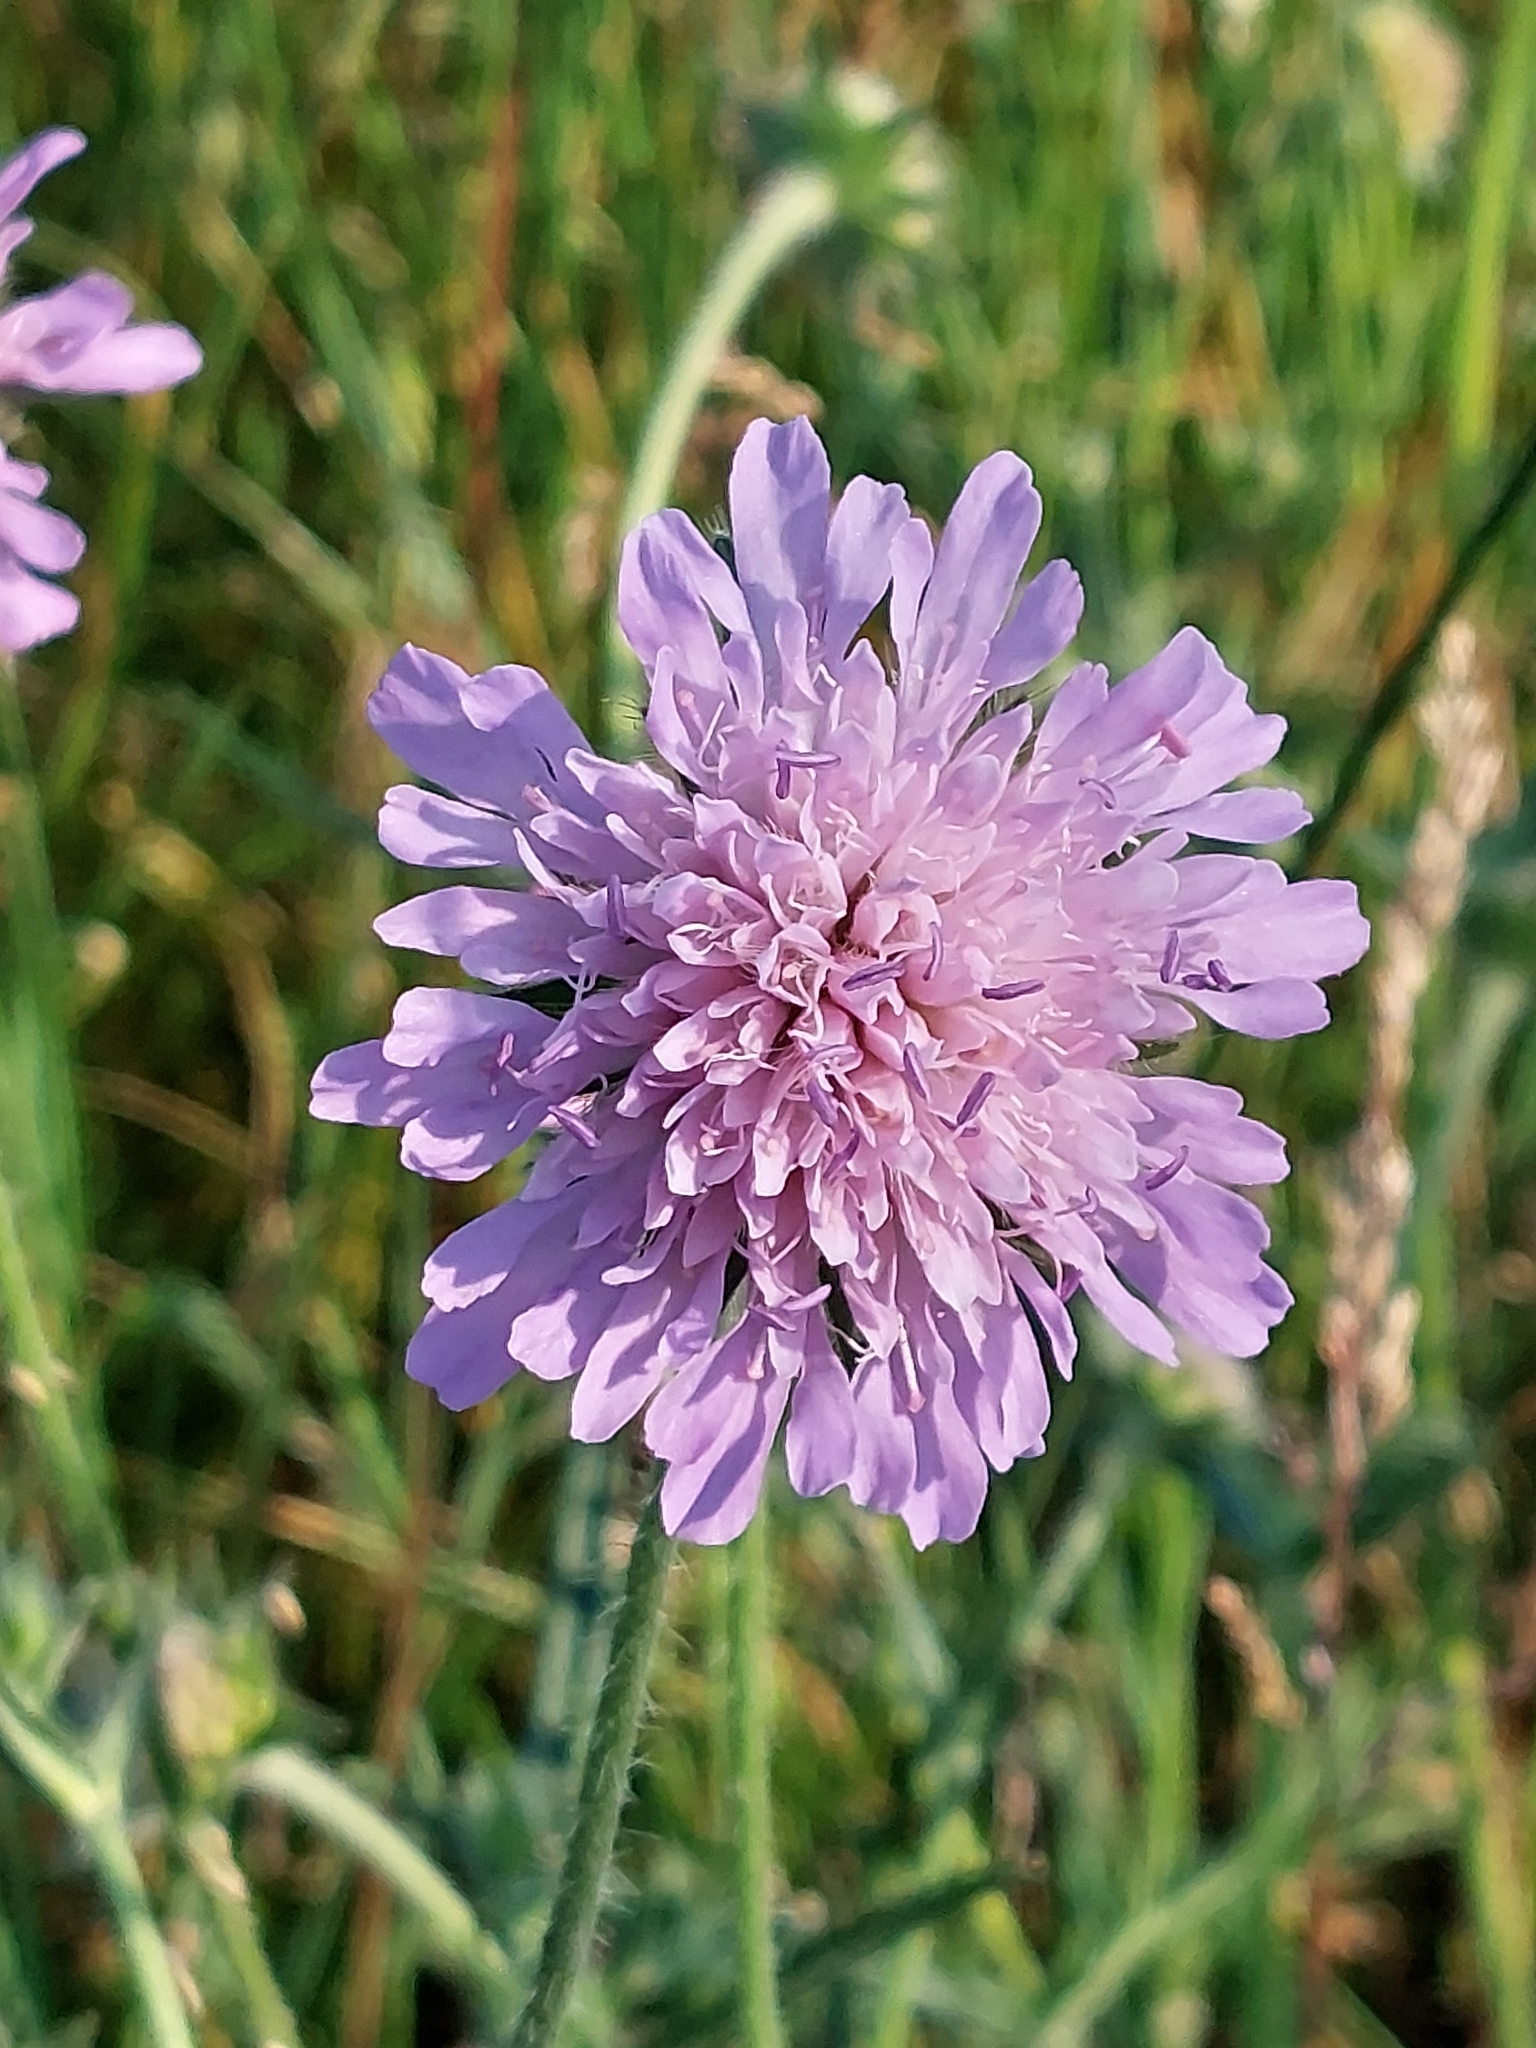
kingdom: Plantae
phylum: Tracheophyta
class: Magnoliopsida
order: Dipsacales
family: Caprifoliaceae
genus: Knautia
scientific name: Knautia arvensis
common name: Field scabiosa
